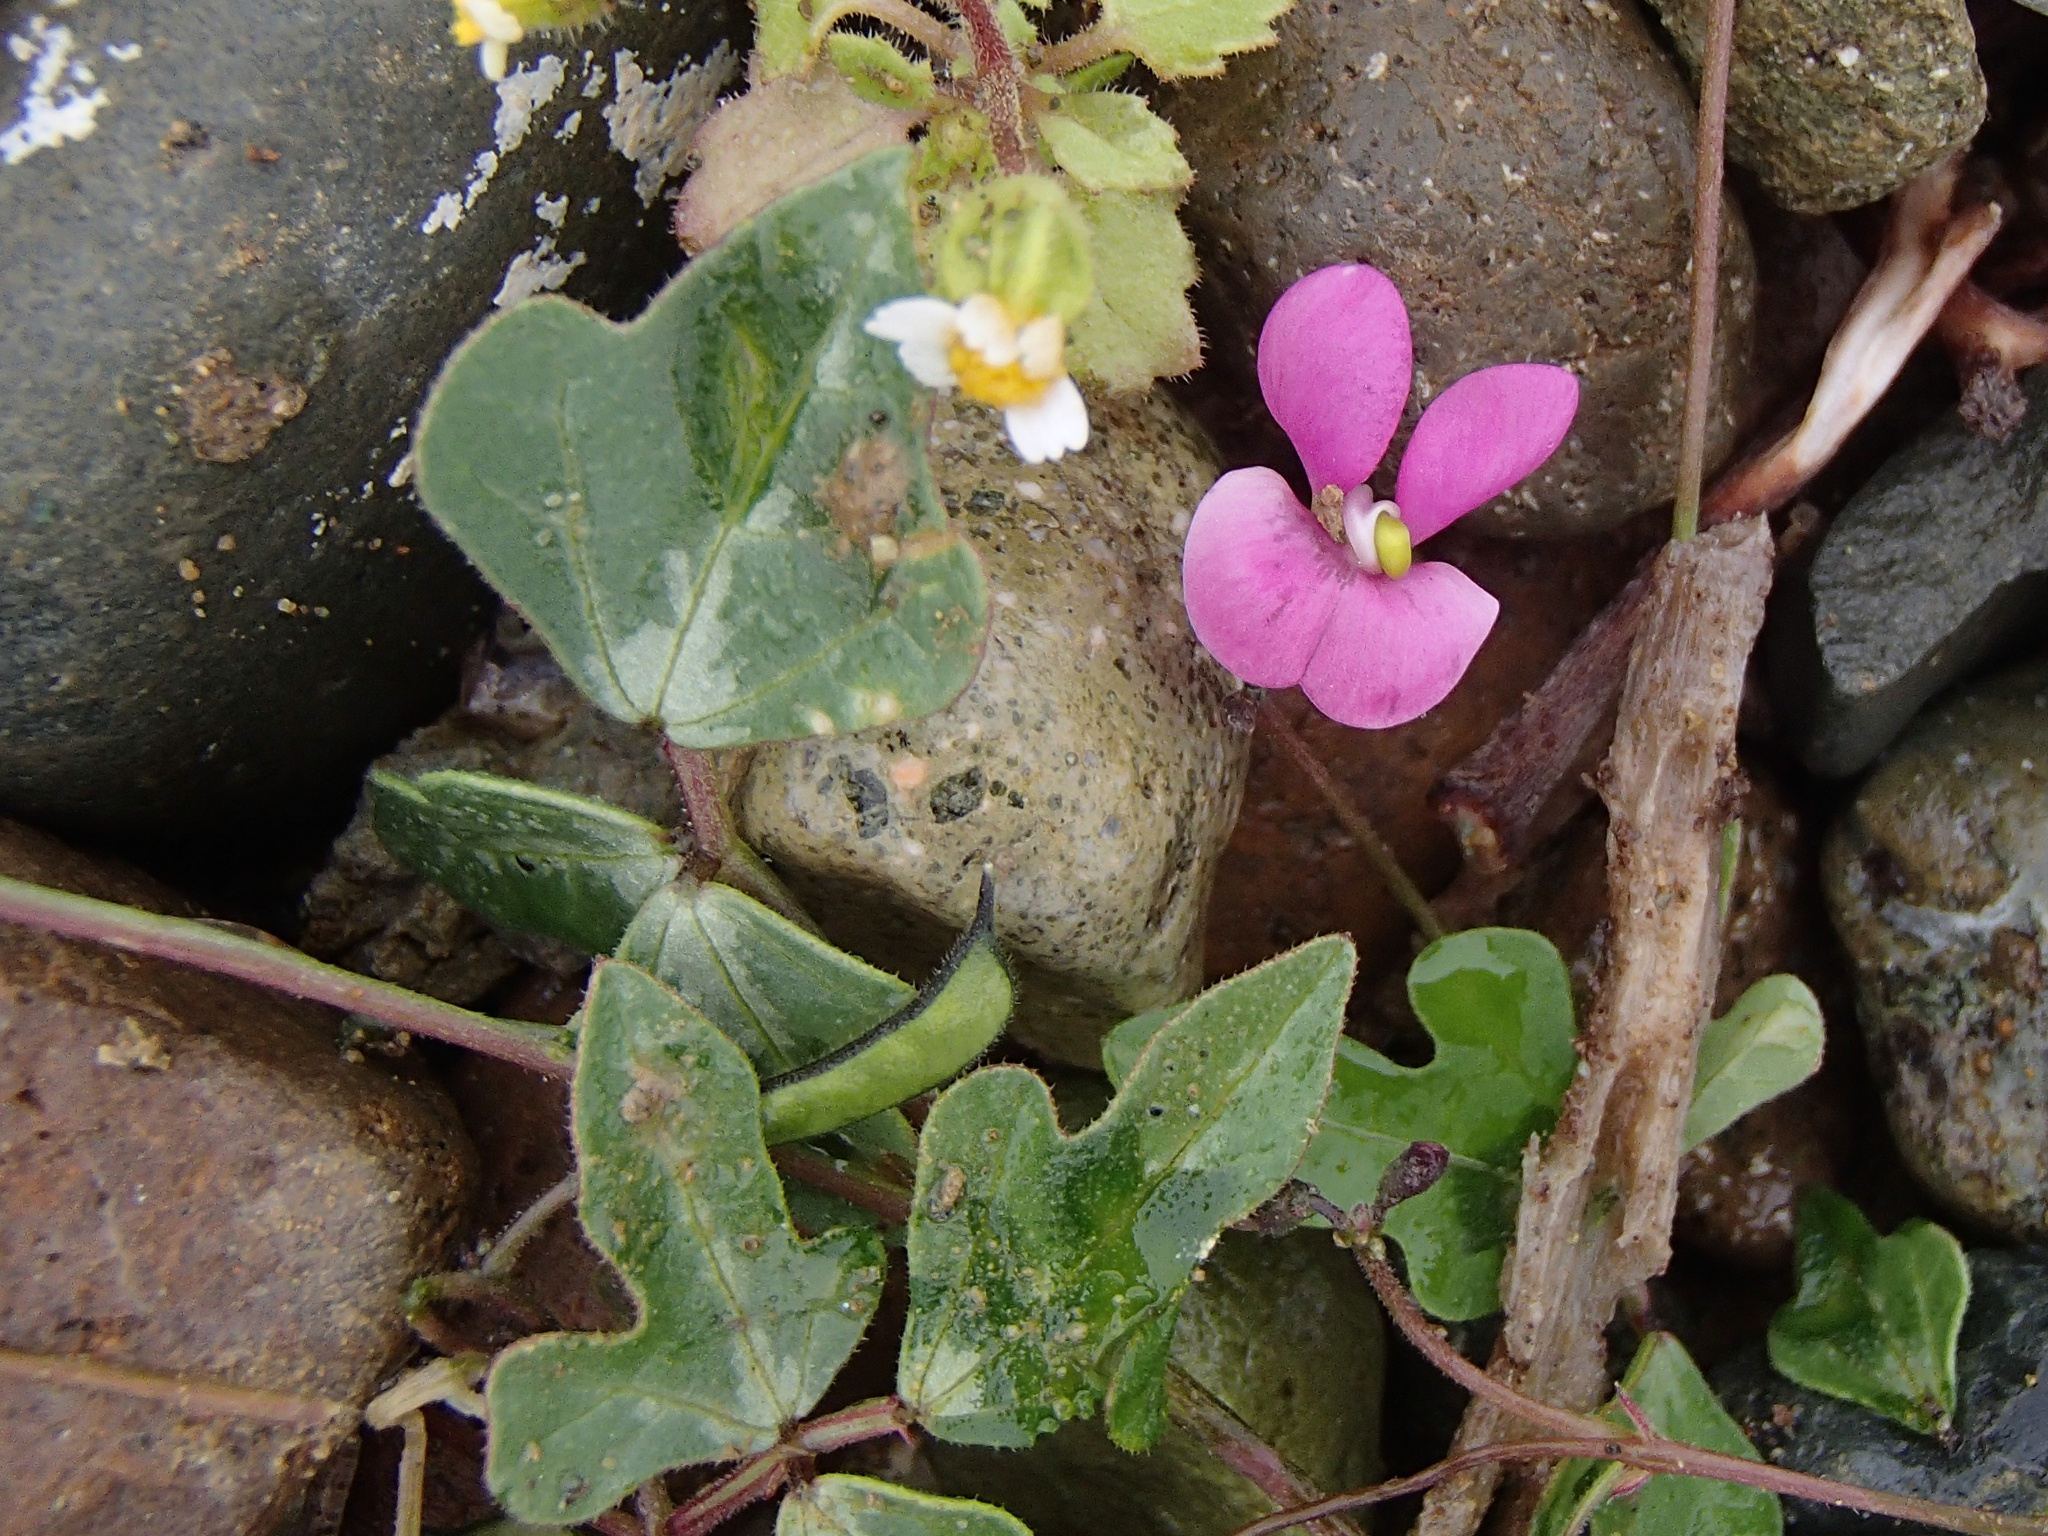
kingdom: Plantae
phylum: Tracheophyta
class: Magnoliopsida
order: Fabales
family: Fabaceae
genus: Phaseolus
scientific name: Phaseolus filiformis
